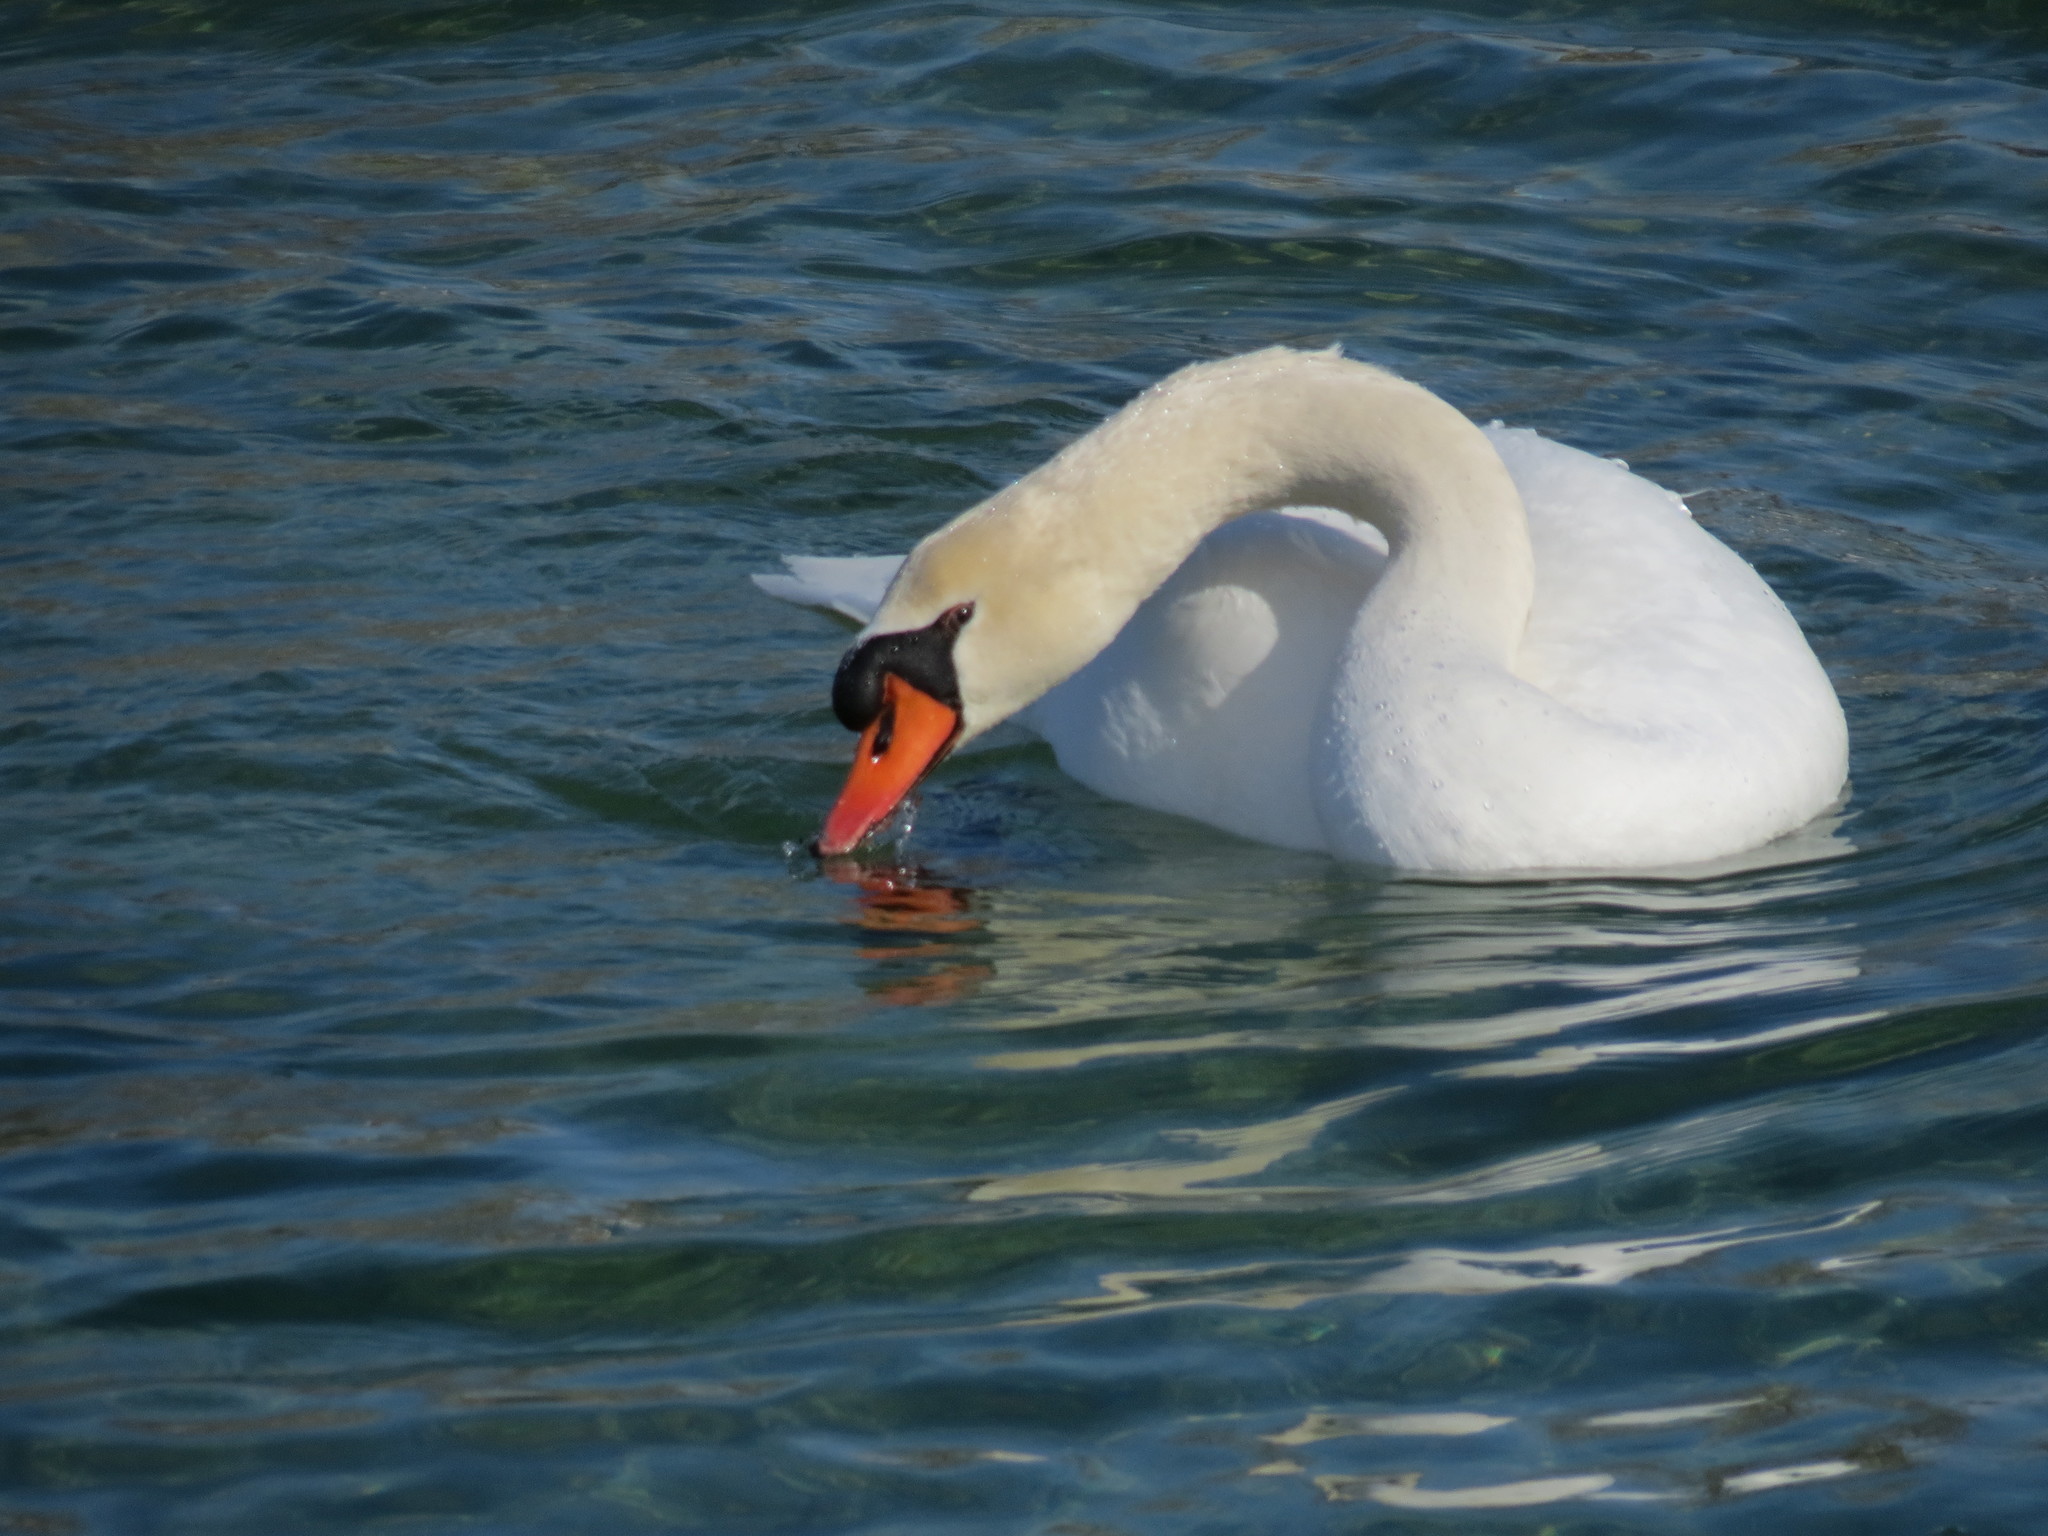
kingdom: Animalia
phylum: Chordata
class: Aves
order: Anseriformes
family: Anatidae
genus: Cygnus
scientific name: Cygnus olor
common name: Mute swan
